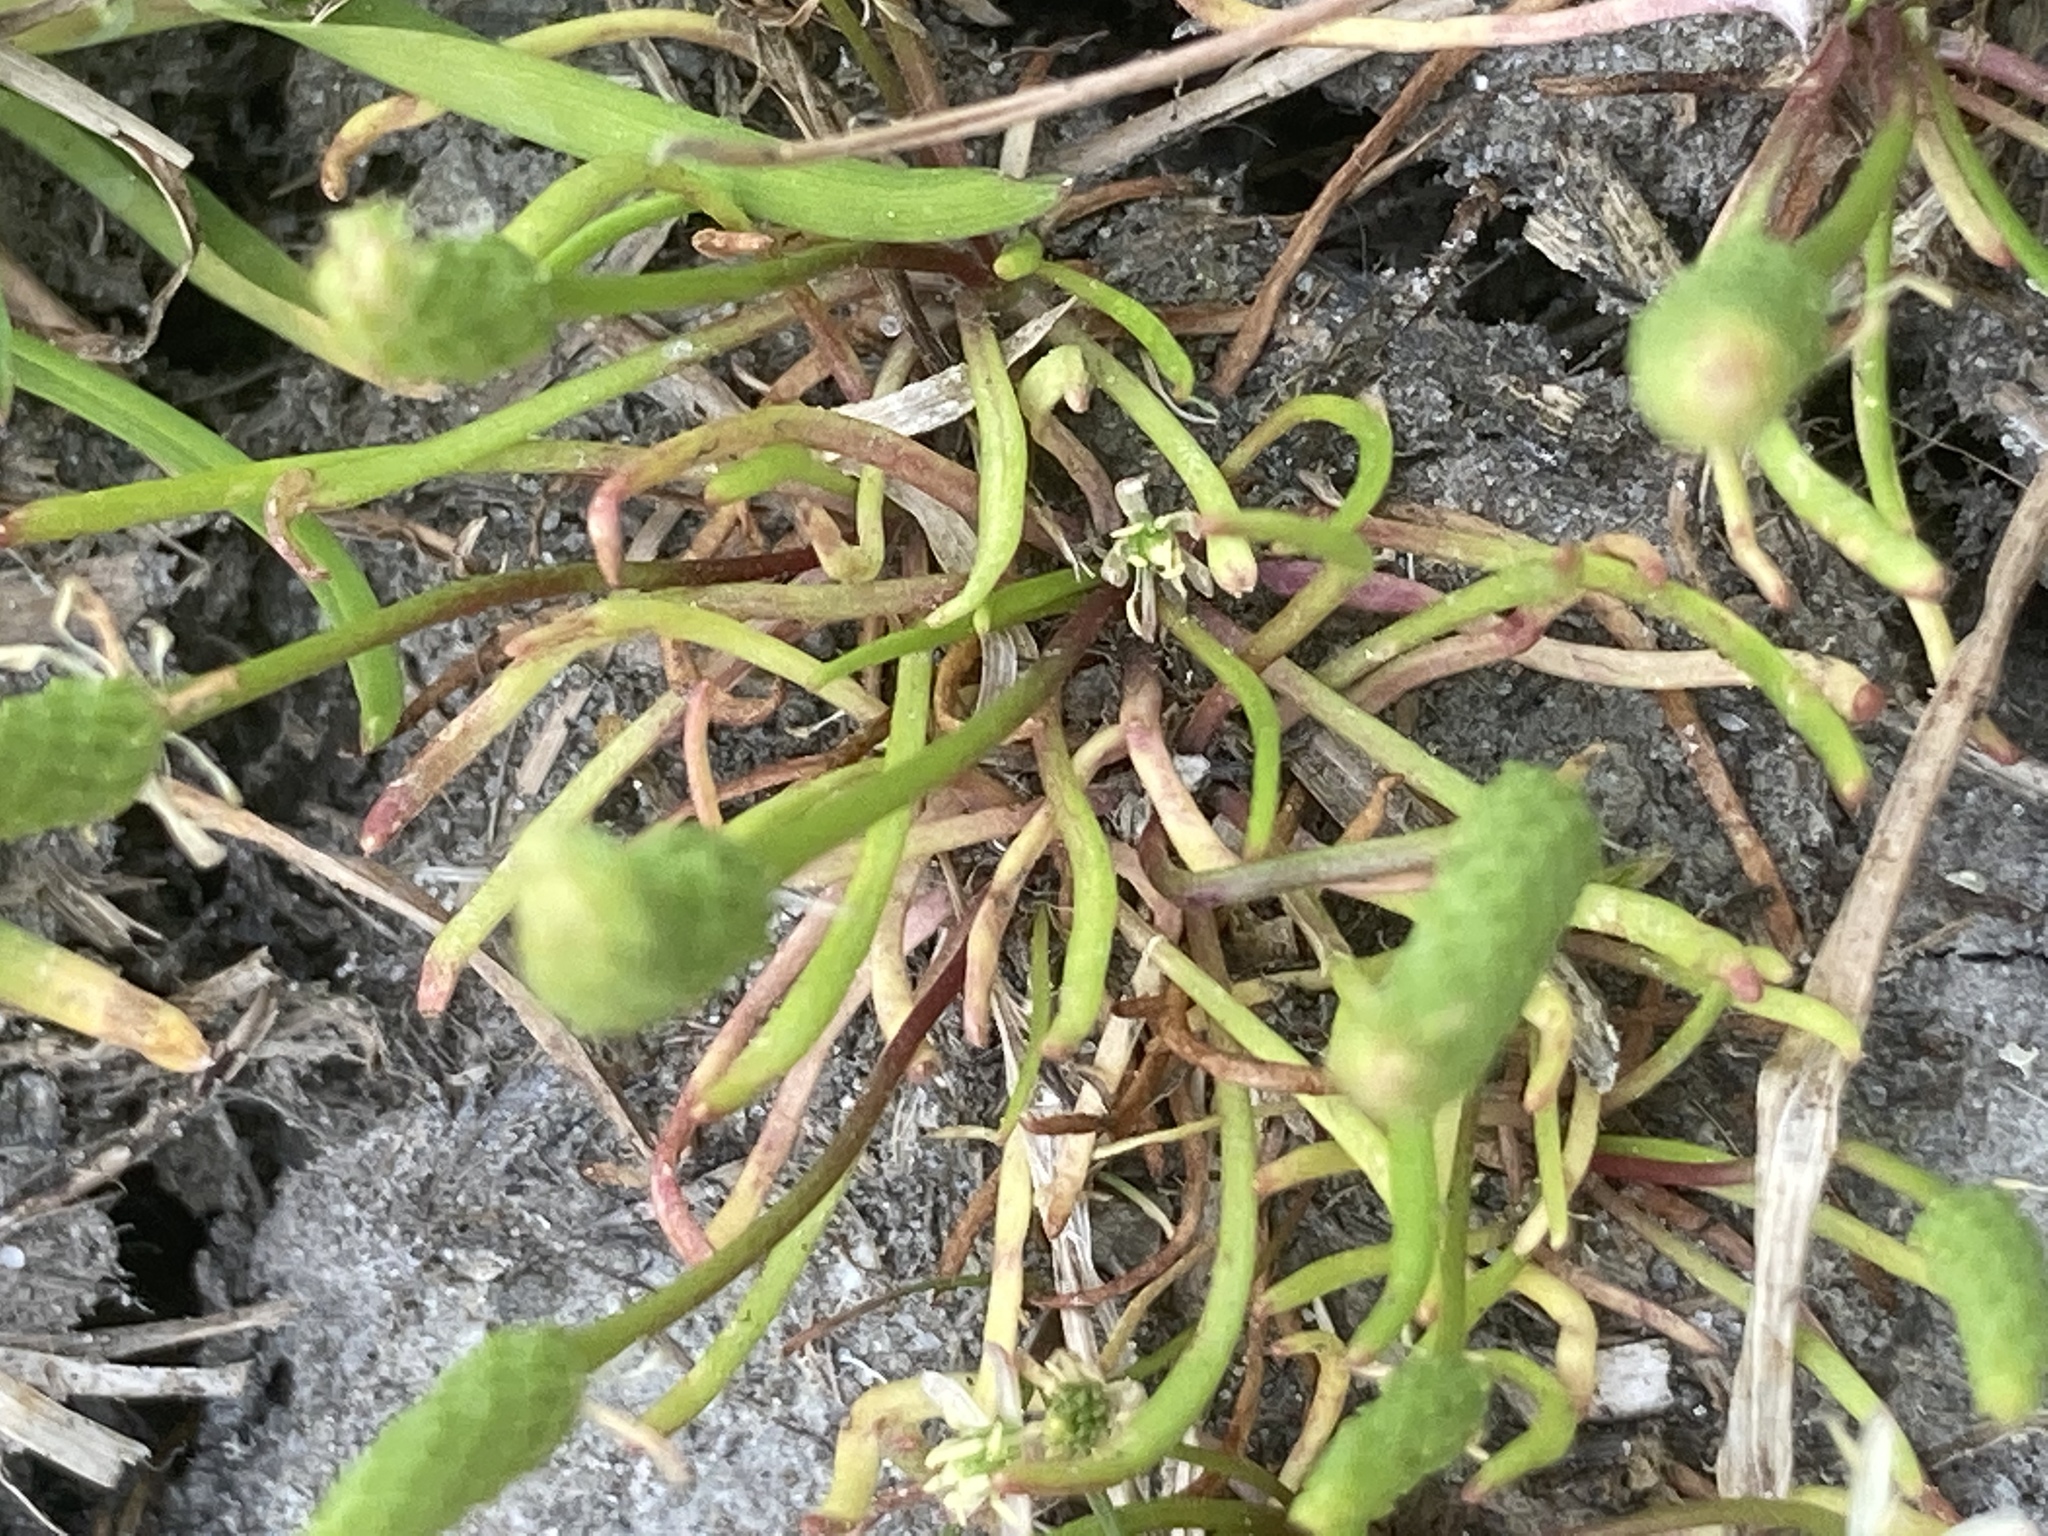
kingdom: Plantae
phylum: Tracheophyta
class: Magnoliopsida
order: Ranunculales
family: Ranunculaceae
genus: Myosurus
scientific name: Myosurus minimus
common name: Mousetail
